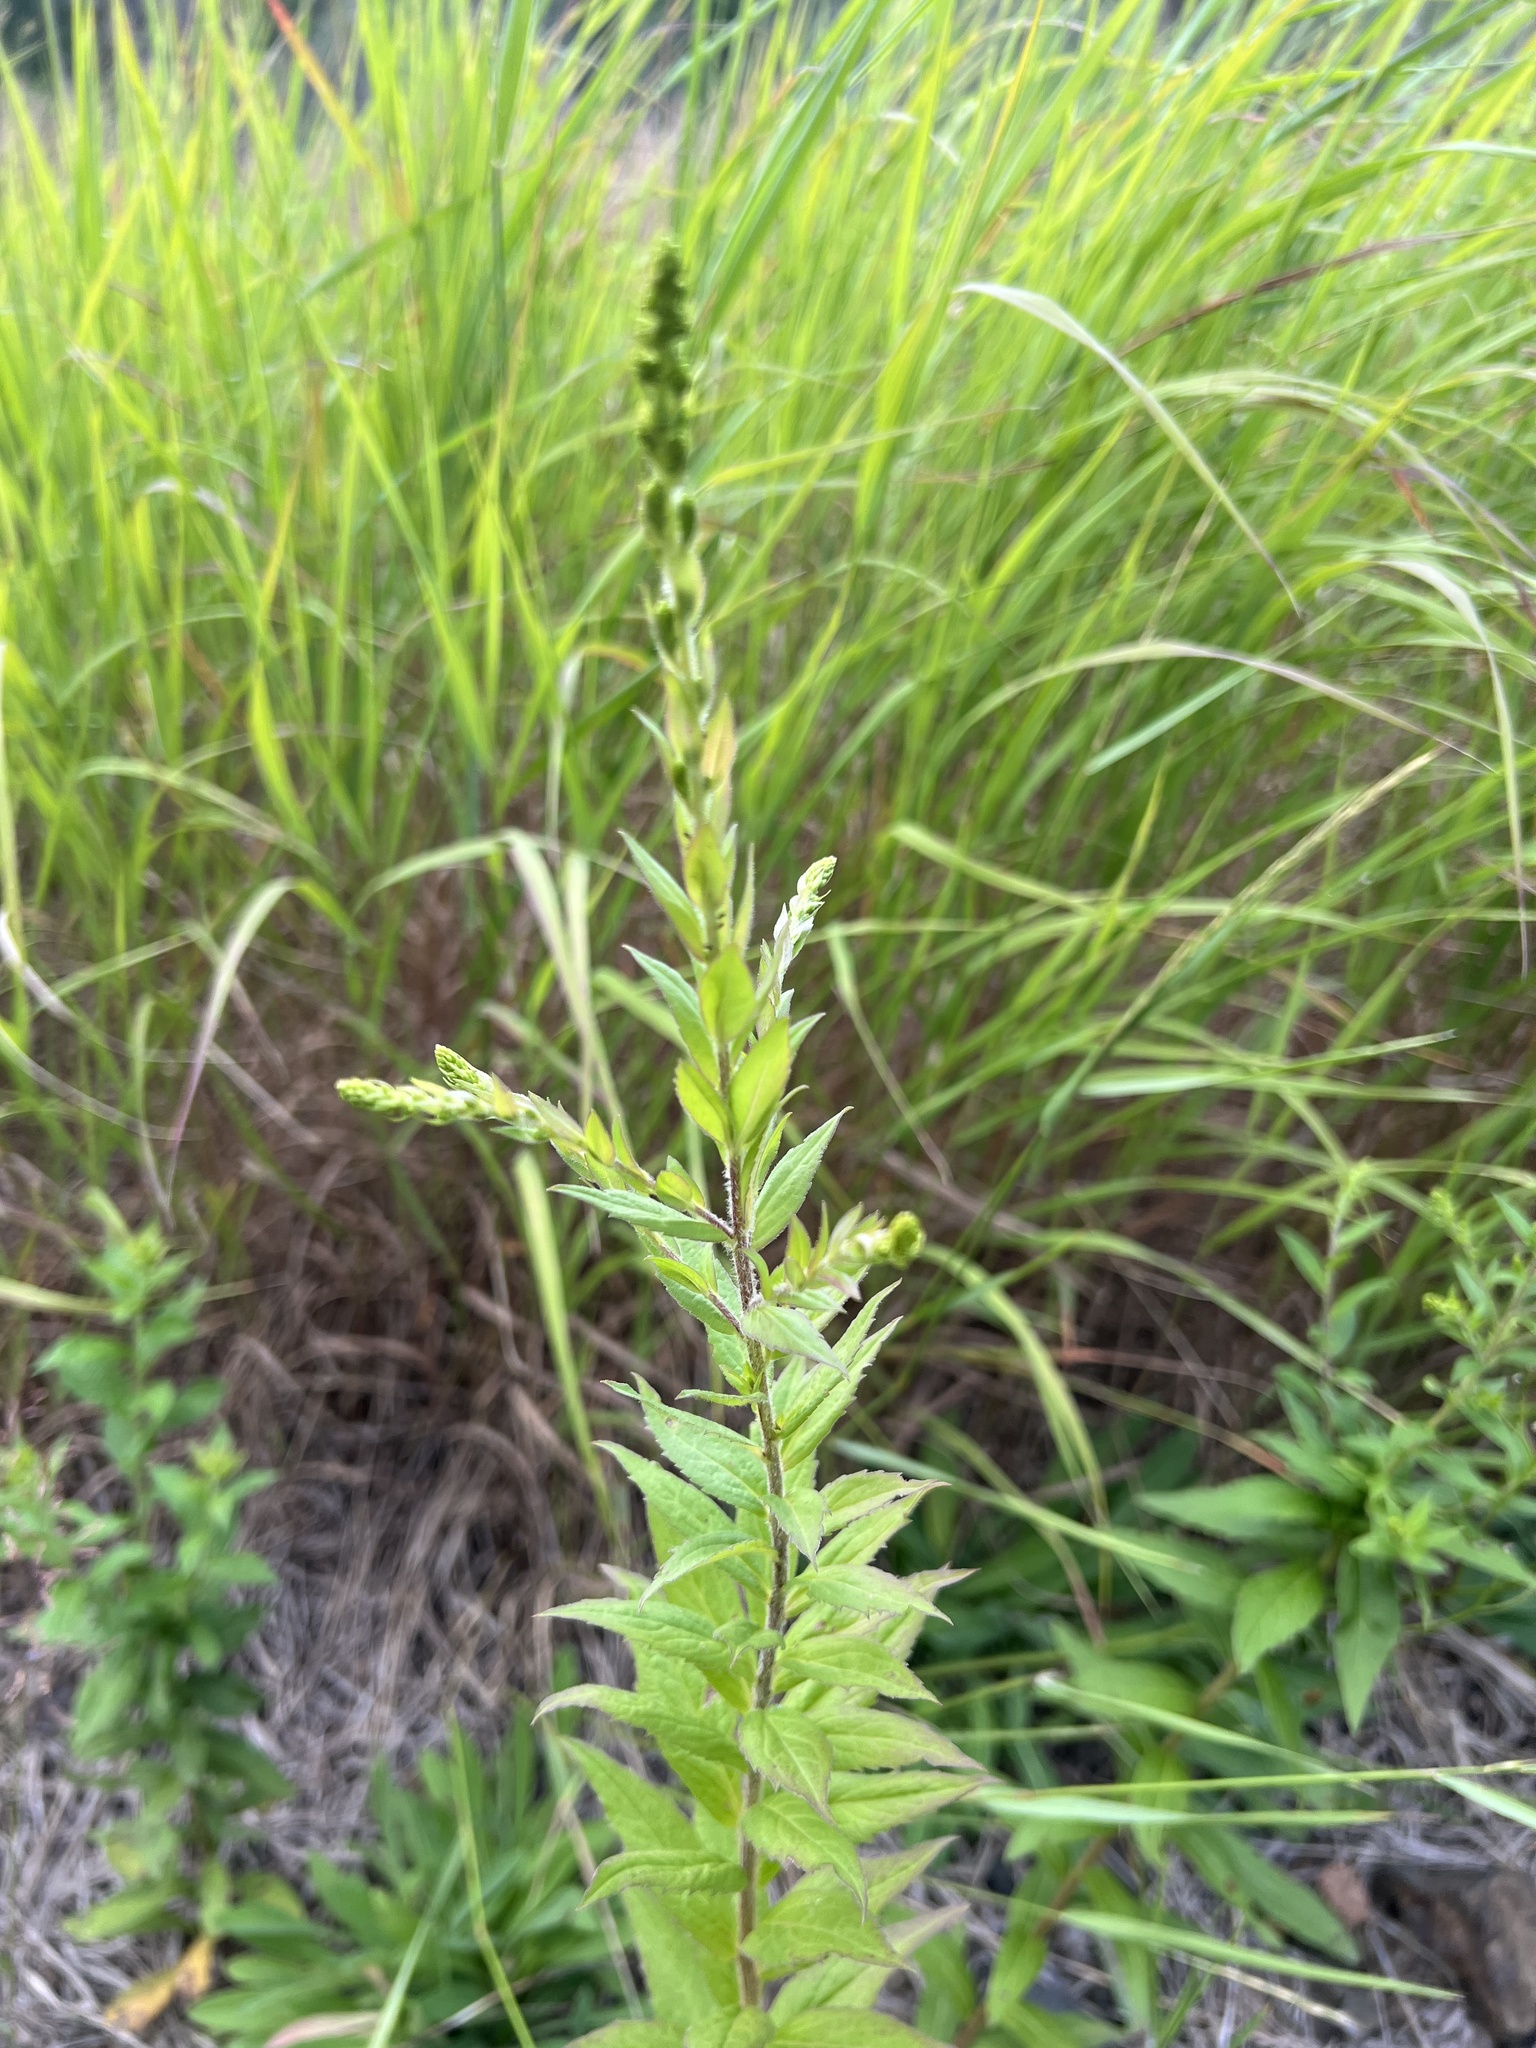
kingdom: Plantae
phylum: Tracheophyta
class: Magnoliopsida
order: Asterales
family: Asteraceae
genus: Solidago
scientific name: Solidago rugosa
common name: Rough-stemmed goldenrod
